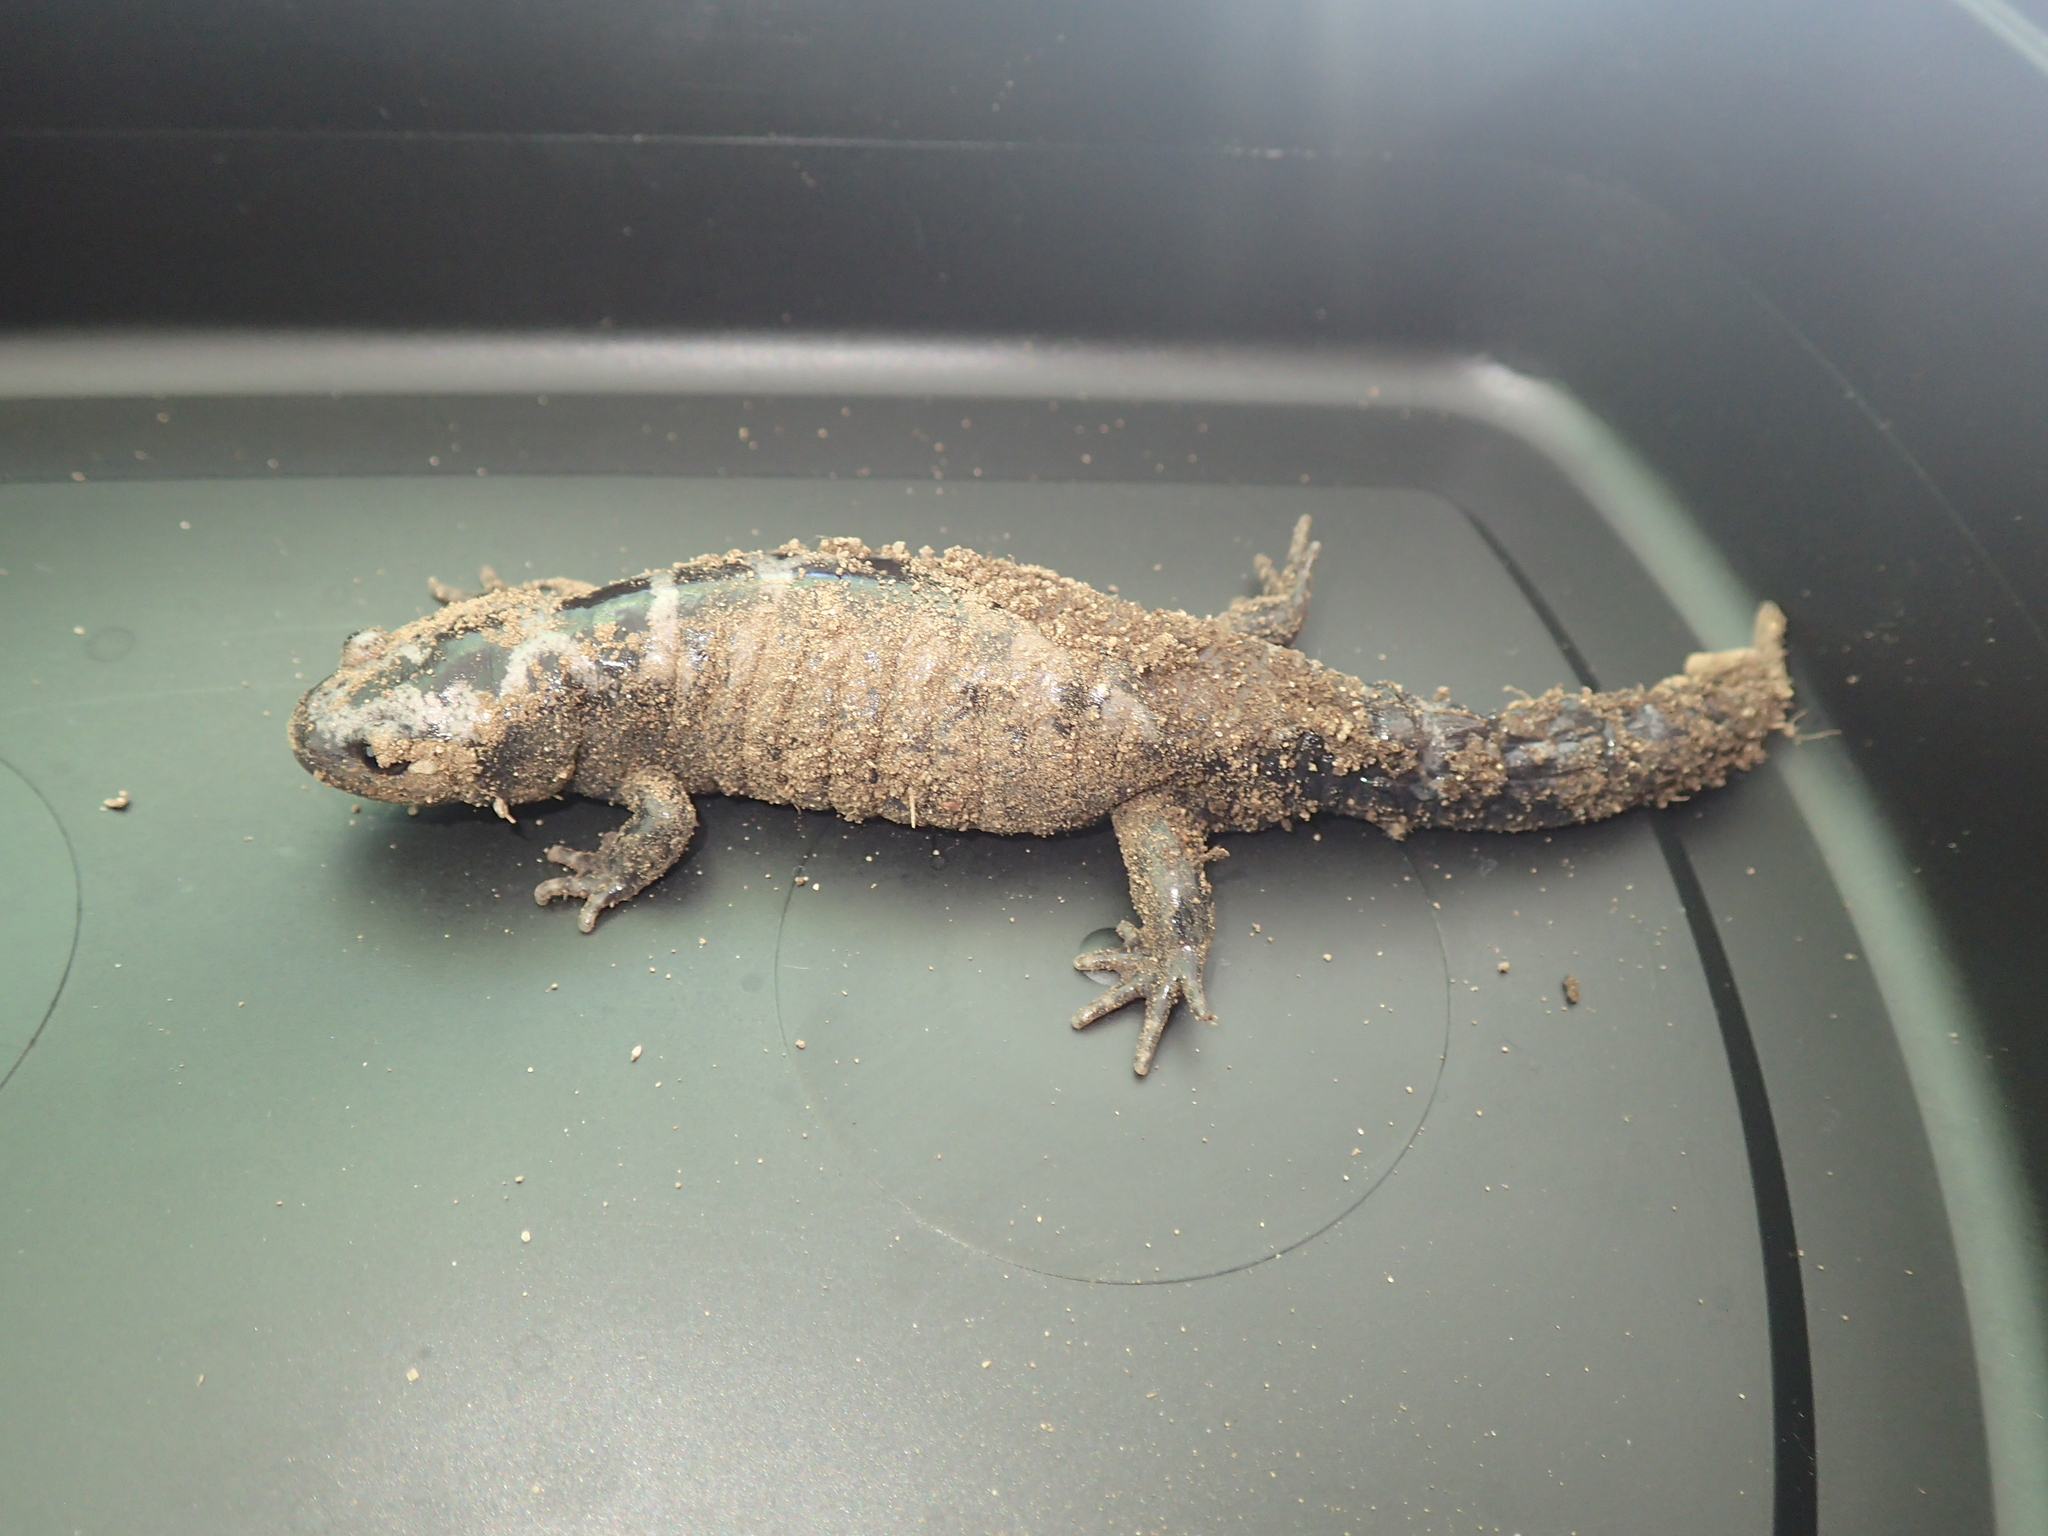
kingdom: Animalia
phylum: Chordata
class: Amphibia
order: Caudata
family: Ambystomatidae
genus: Ambystoma
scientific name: Ambystoma opacum
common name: Marbled salamander
